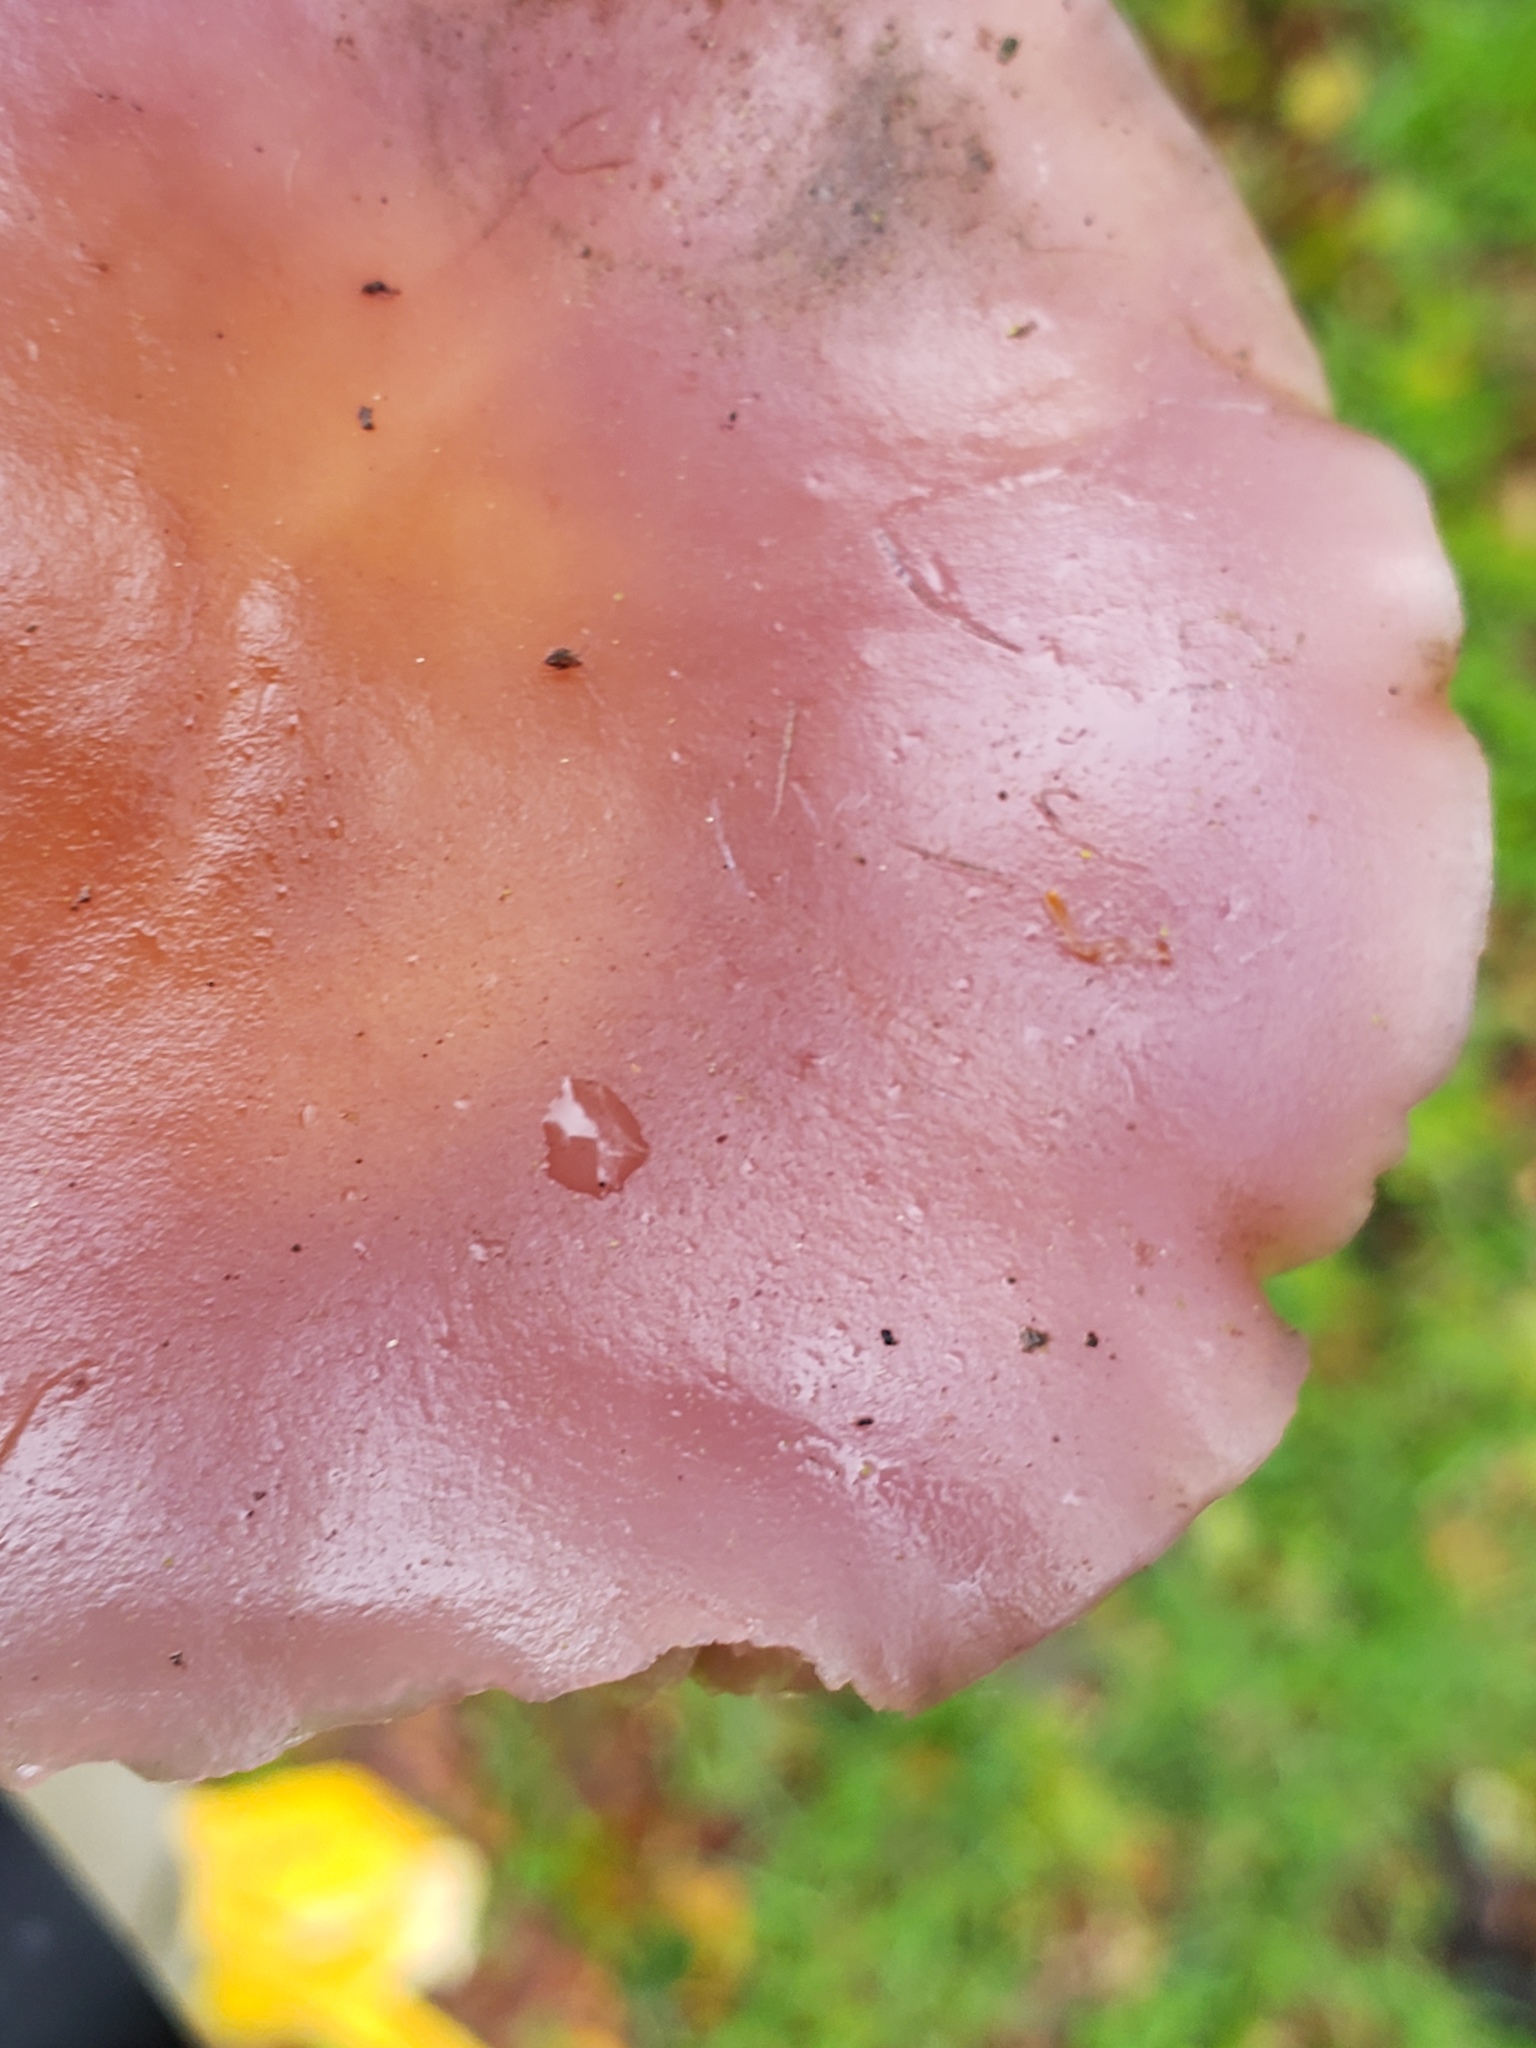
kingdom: Fungi
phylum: Basidiomycota
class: Agaricomycetes
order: Agaricales
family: Tricholomataceae
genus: Collybia
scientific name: Collybia
